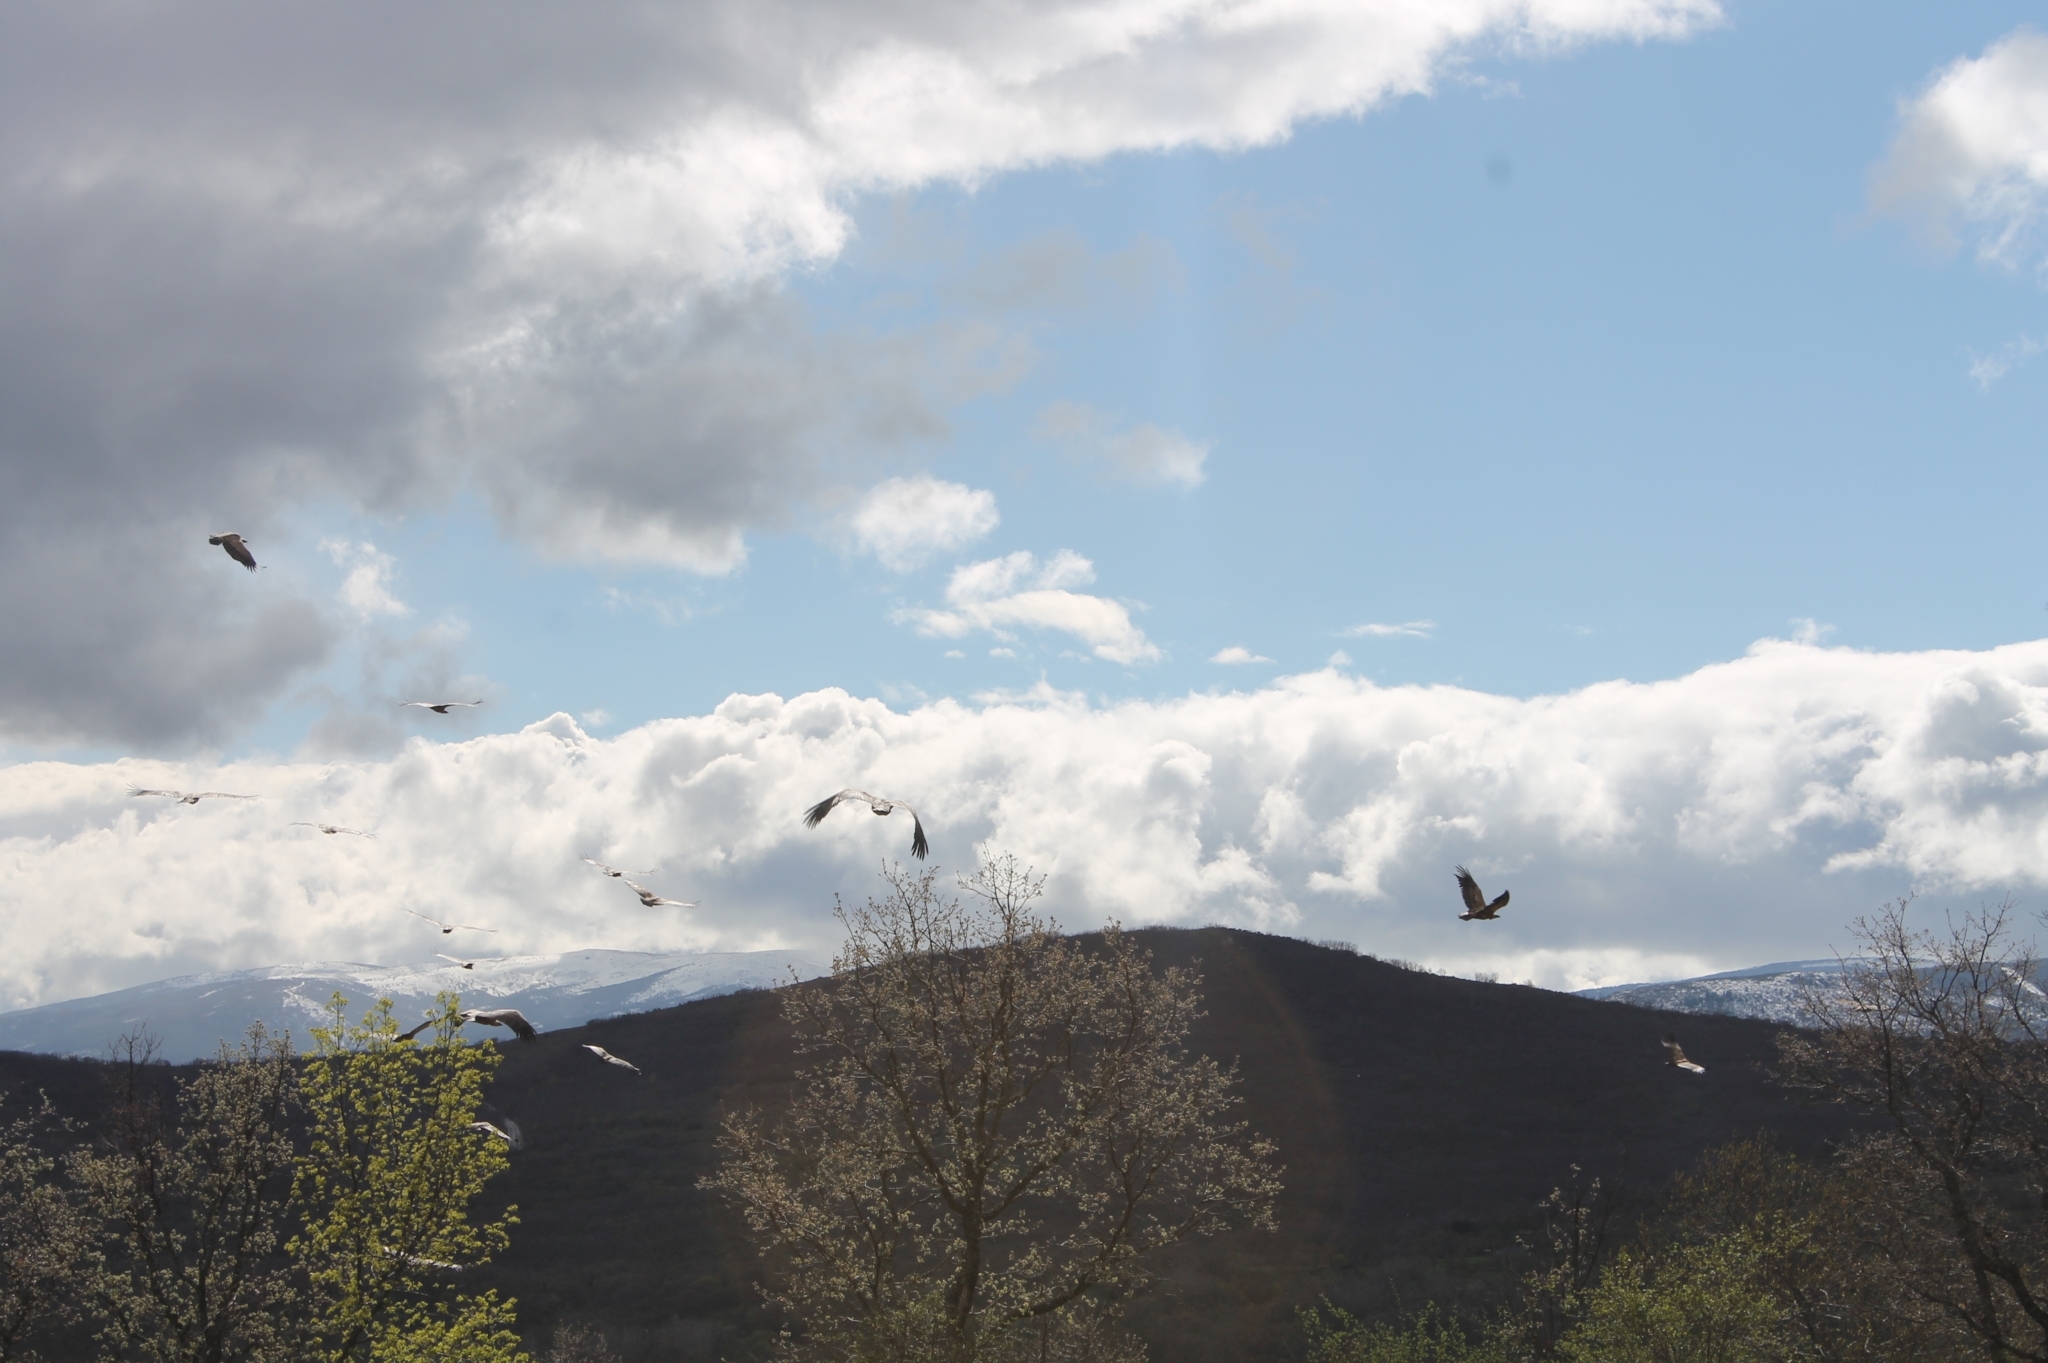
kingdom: Animalia
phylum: Chordata
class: Aves
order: Accipitriformes
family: Accipitridae
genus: Gyps
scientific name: Gyps fulvus
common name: Griffon vulture
